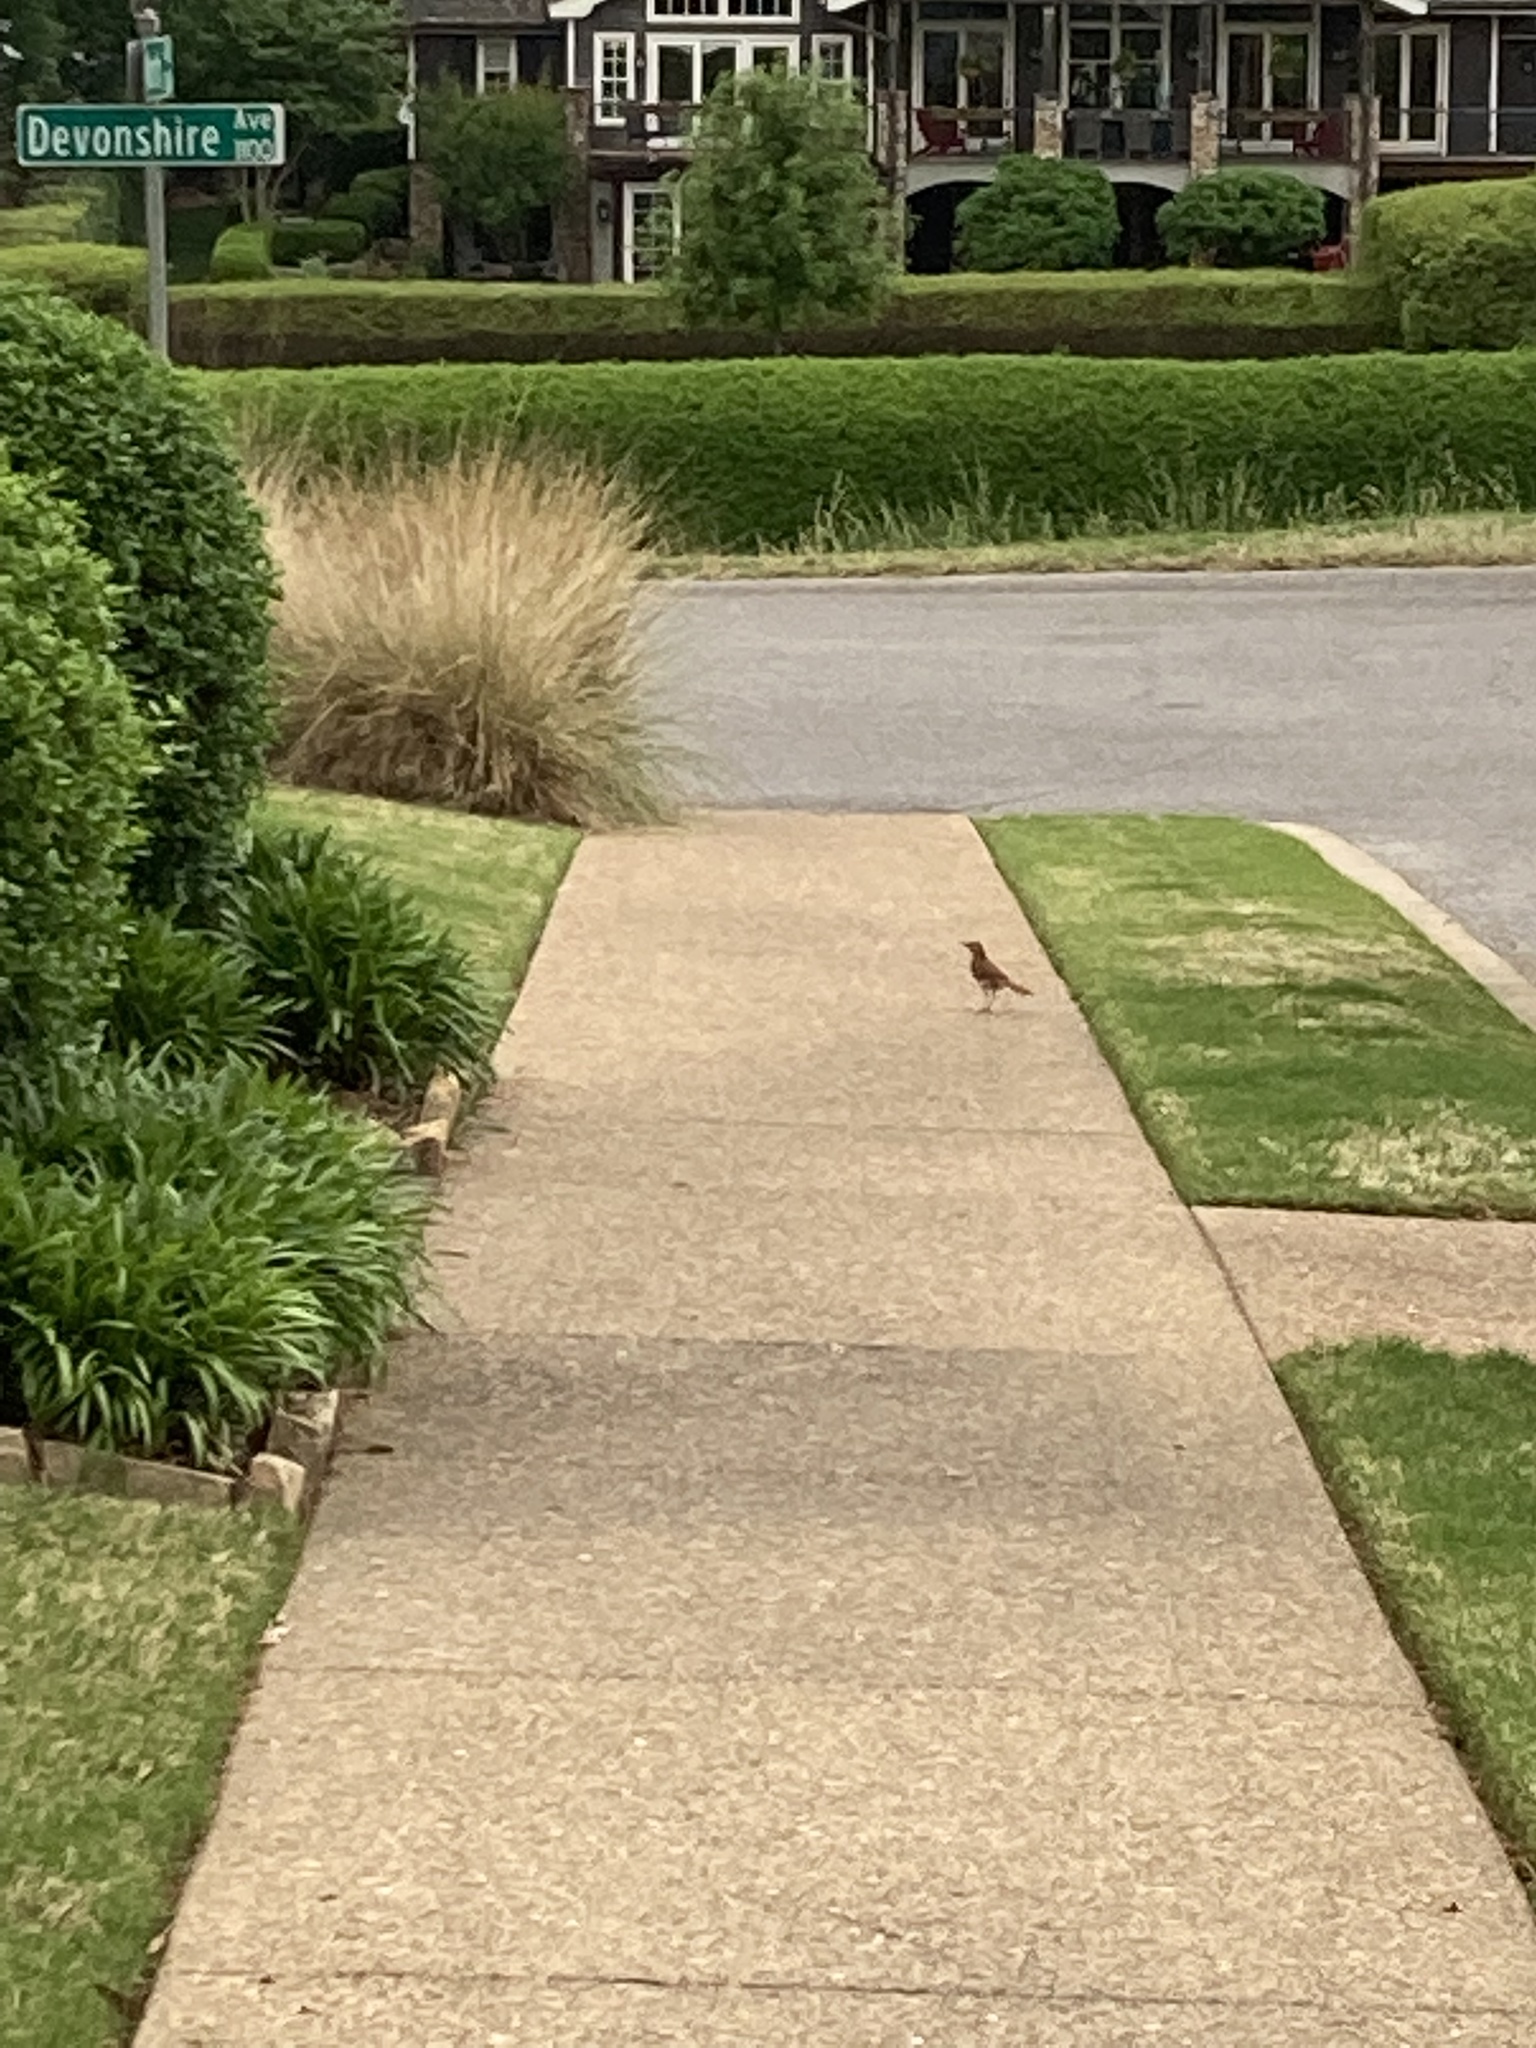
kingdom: Animalia
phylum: Chordata
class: Aves
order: Passeriformes
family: Mimidae
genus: Toxostoma
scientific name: Toxostoma rufum
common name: Brown thrasher
